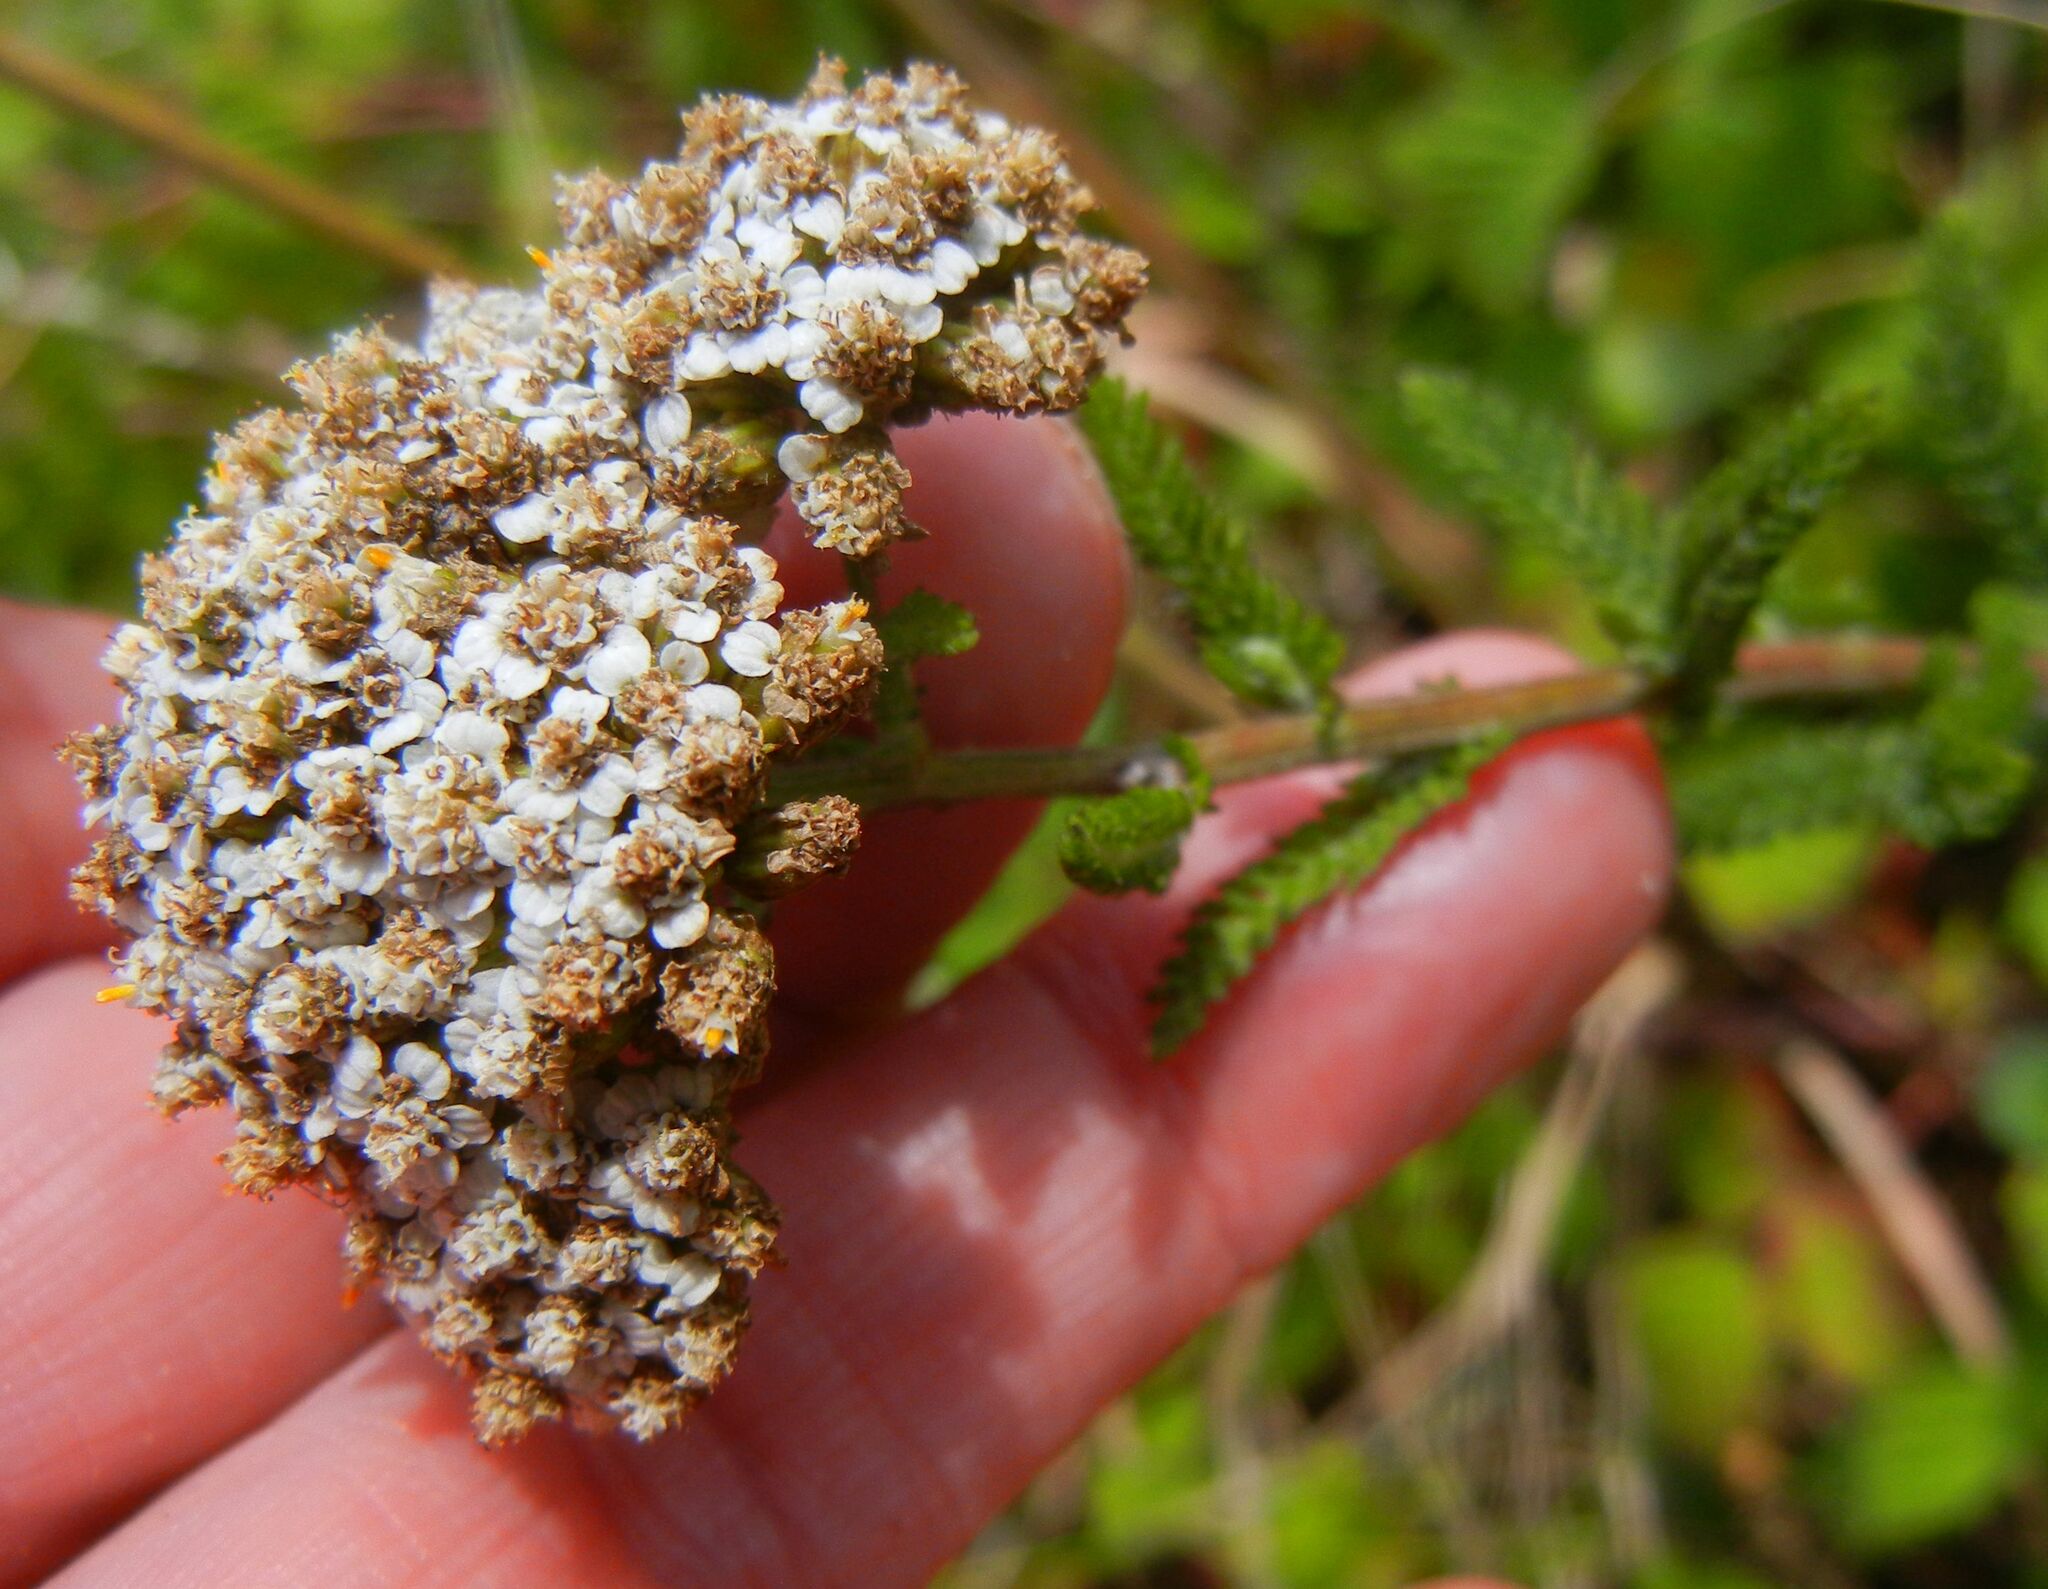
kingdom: Plantae
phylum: Tracheophyta
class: Magnoliopsida
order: Asterales
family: Asteraceae
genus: Achillea
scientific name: Achillea millefolium
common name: Yarrow
